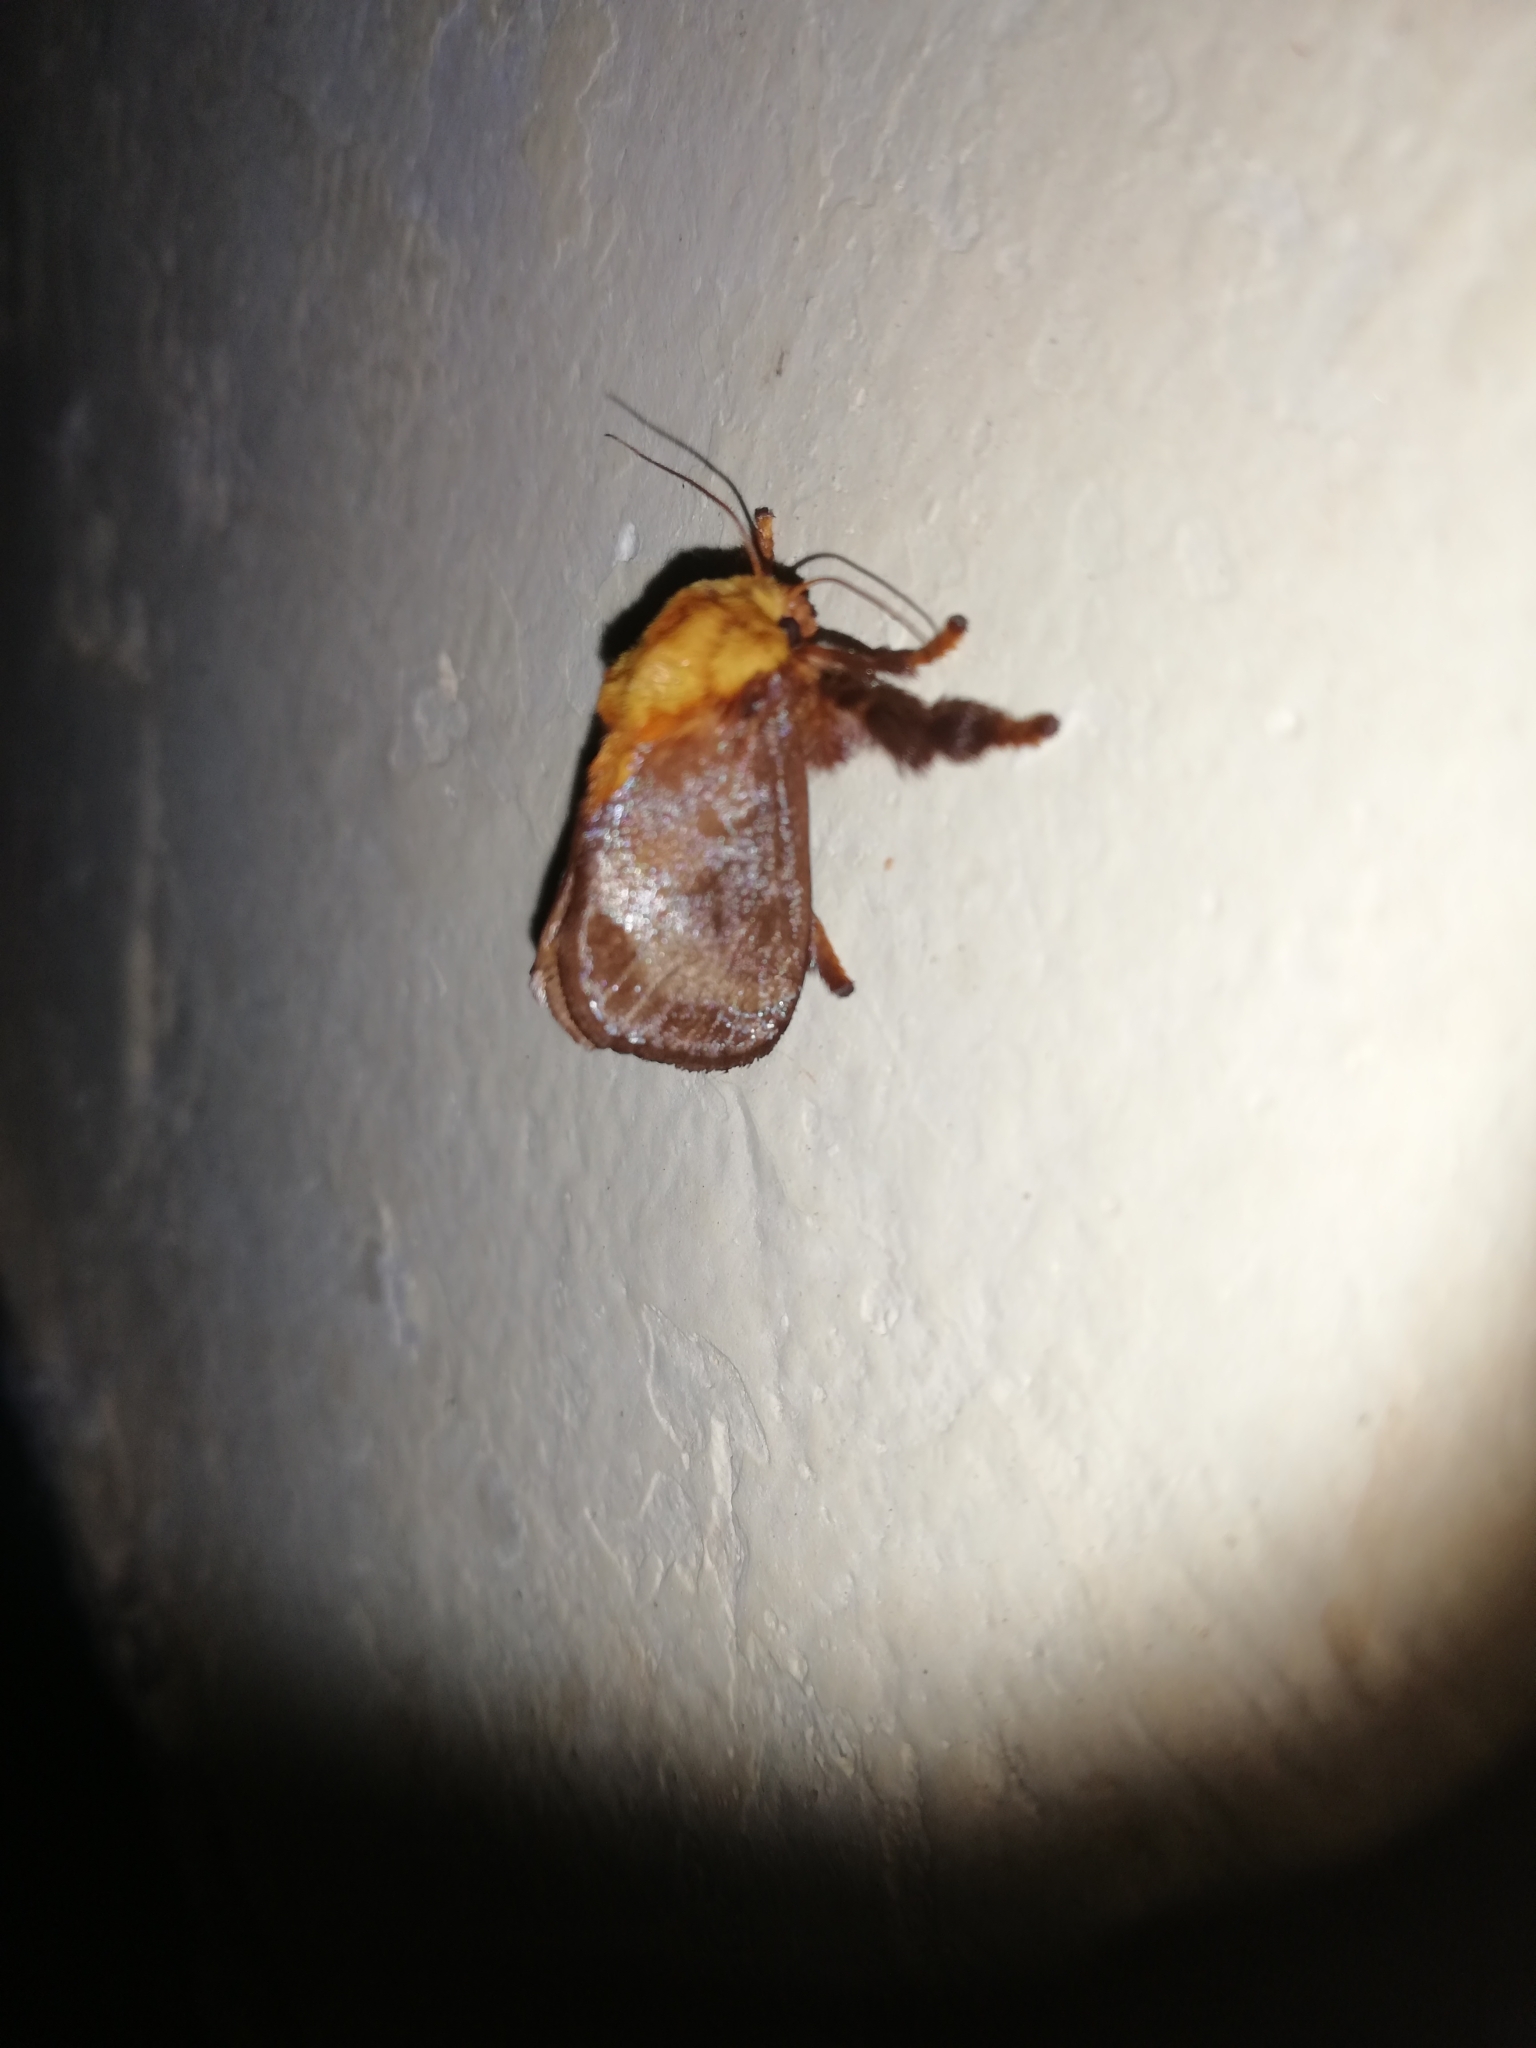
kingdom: Animalia
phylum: Arthropoda
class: Insecta
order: Lepidoptera
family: Limacodidae
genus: Miresa
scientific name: Miresa argentifera
